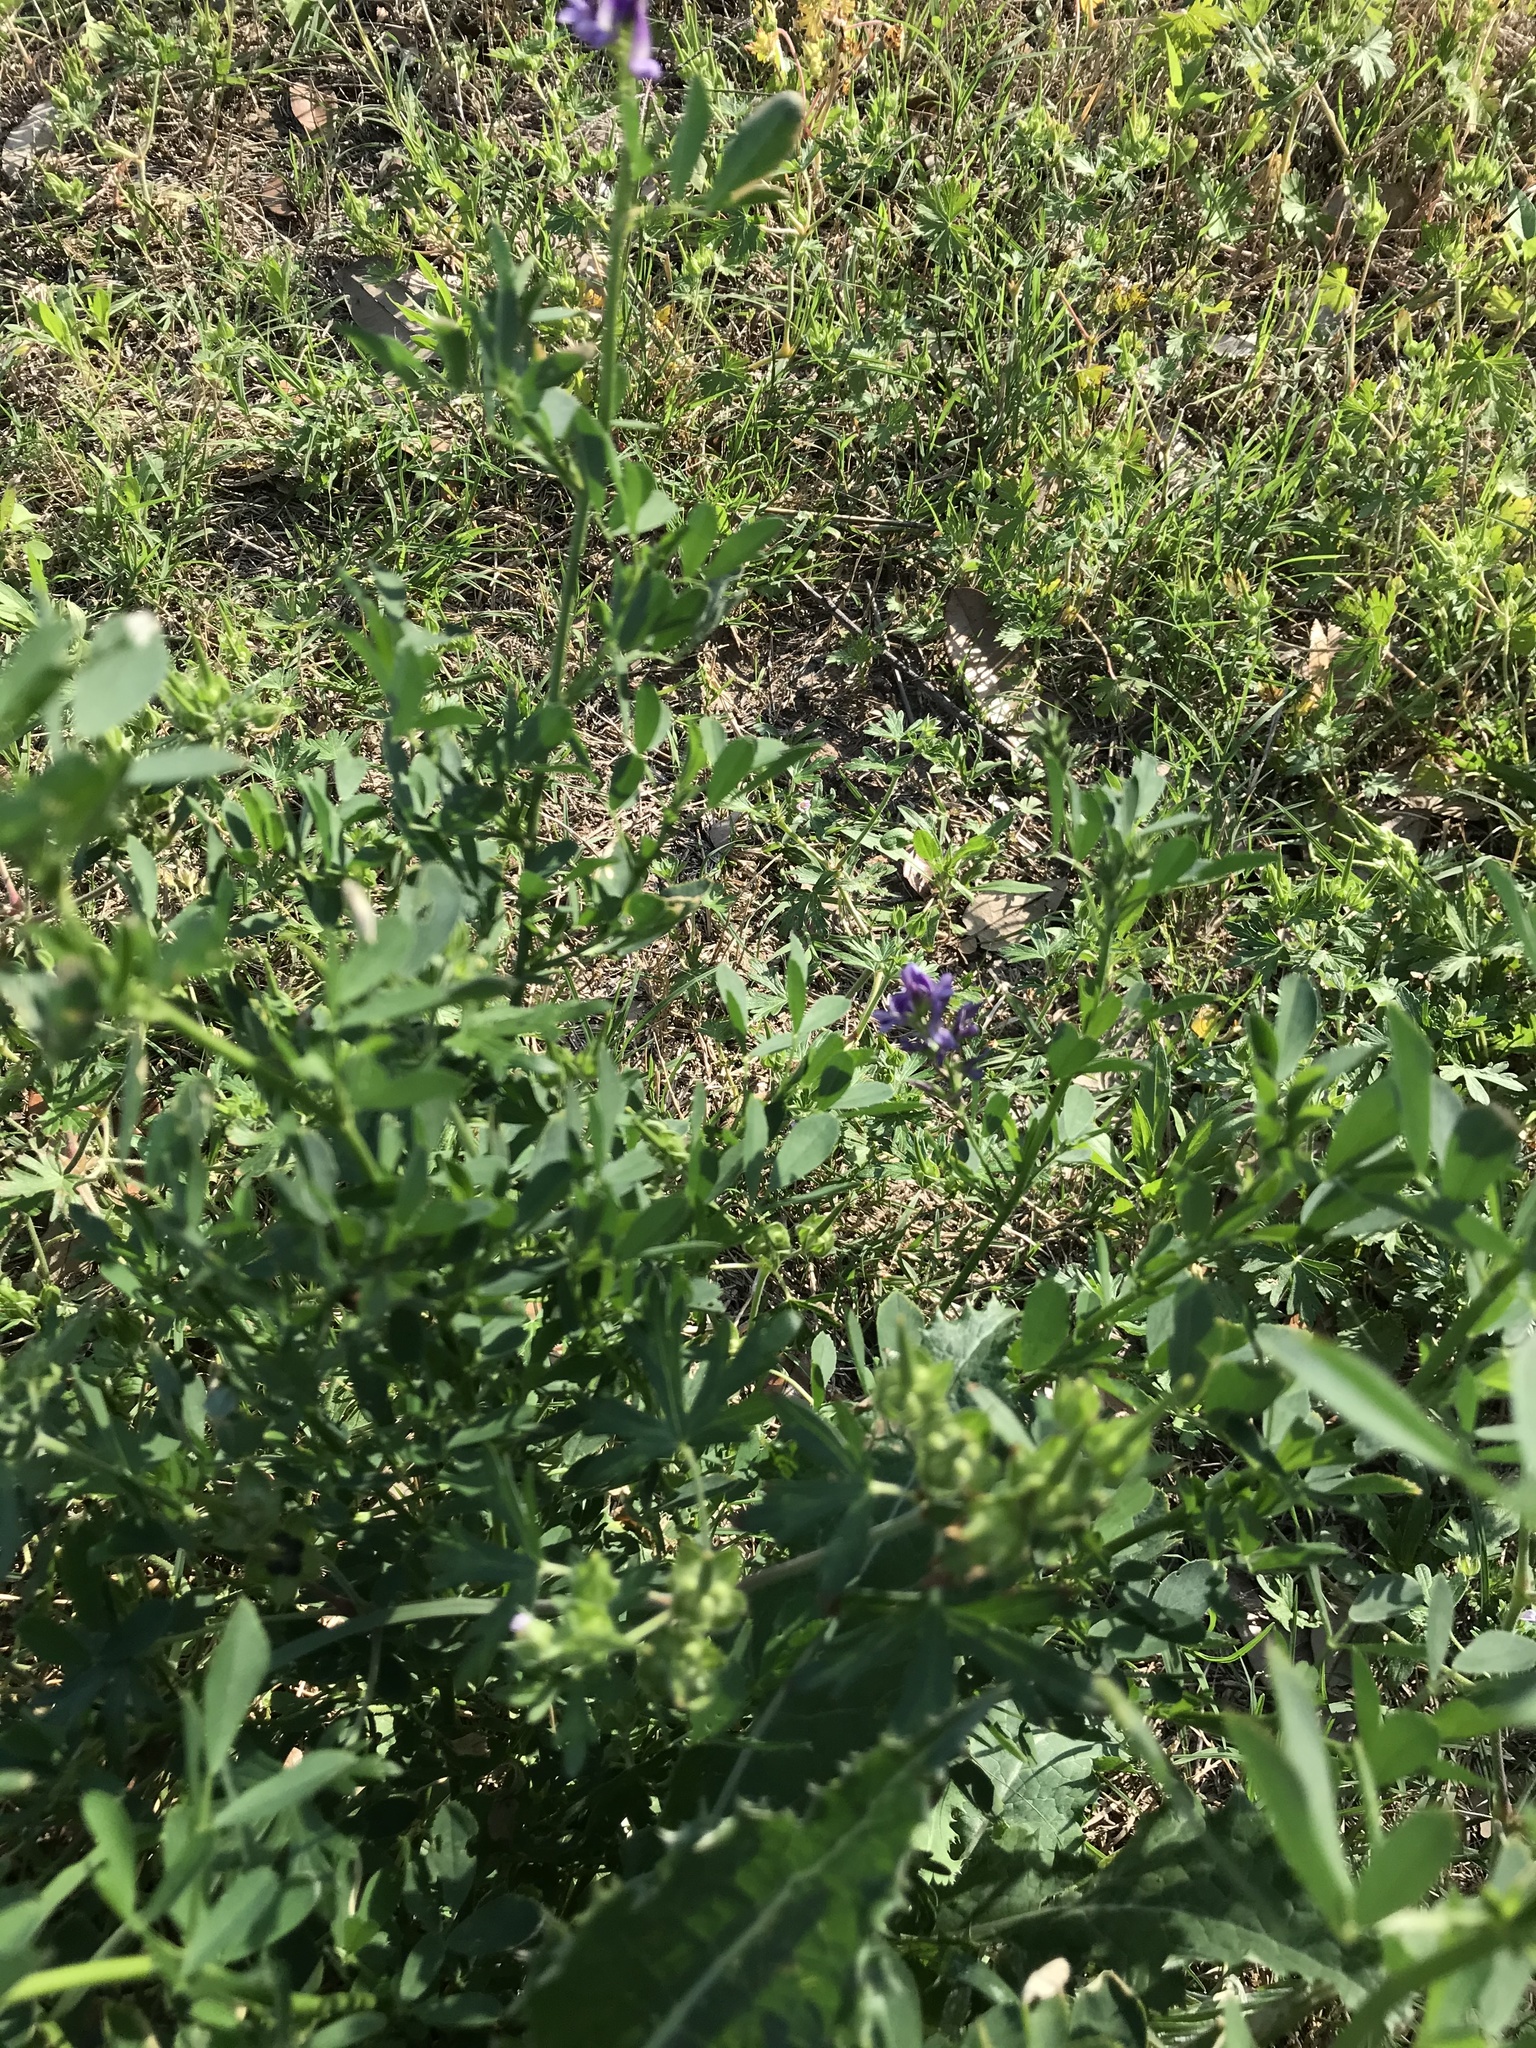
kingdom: Plantae
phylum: Tracheophyta
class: Magnoliopsida
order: Fabales
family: Fabaceae
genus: Medicago
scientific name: Medicago sativa
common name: Alfalfa
